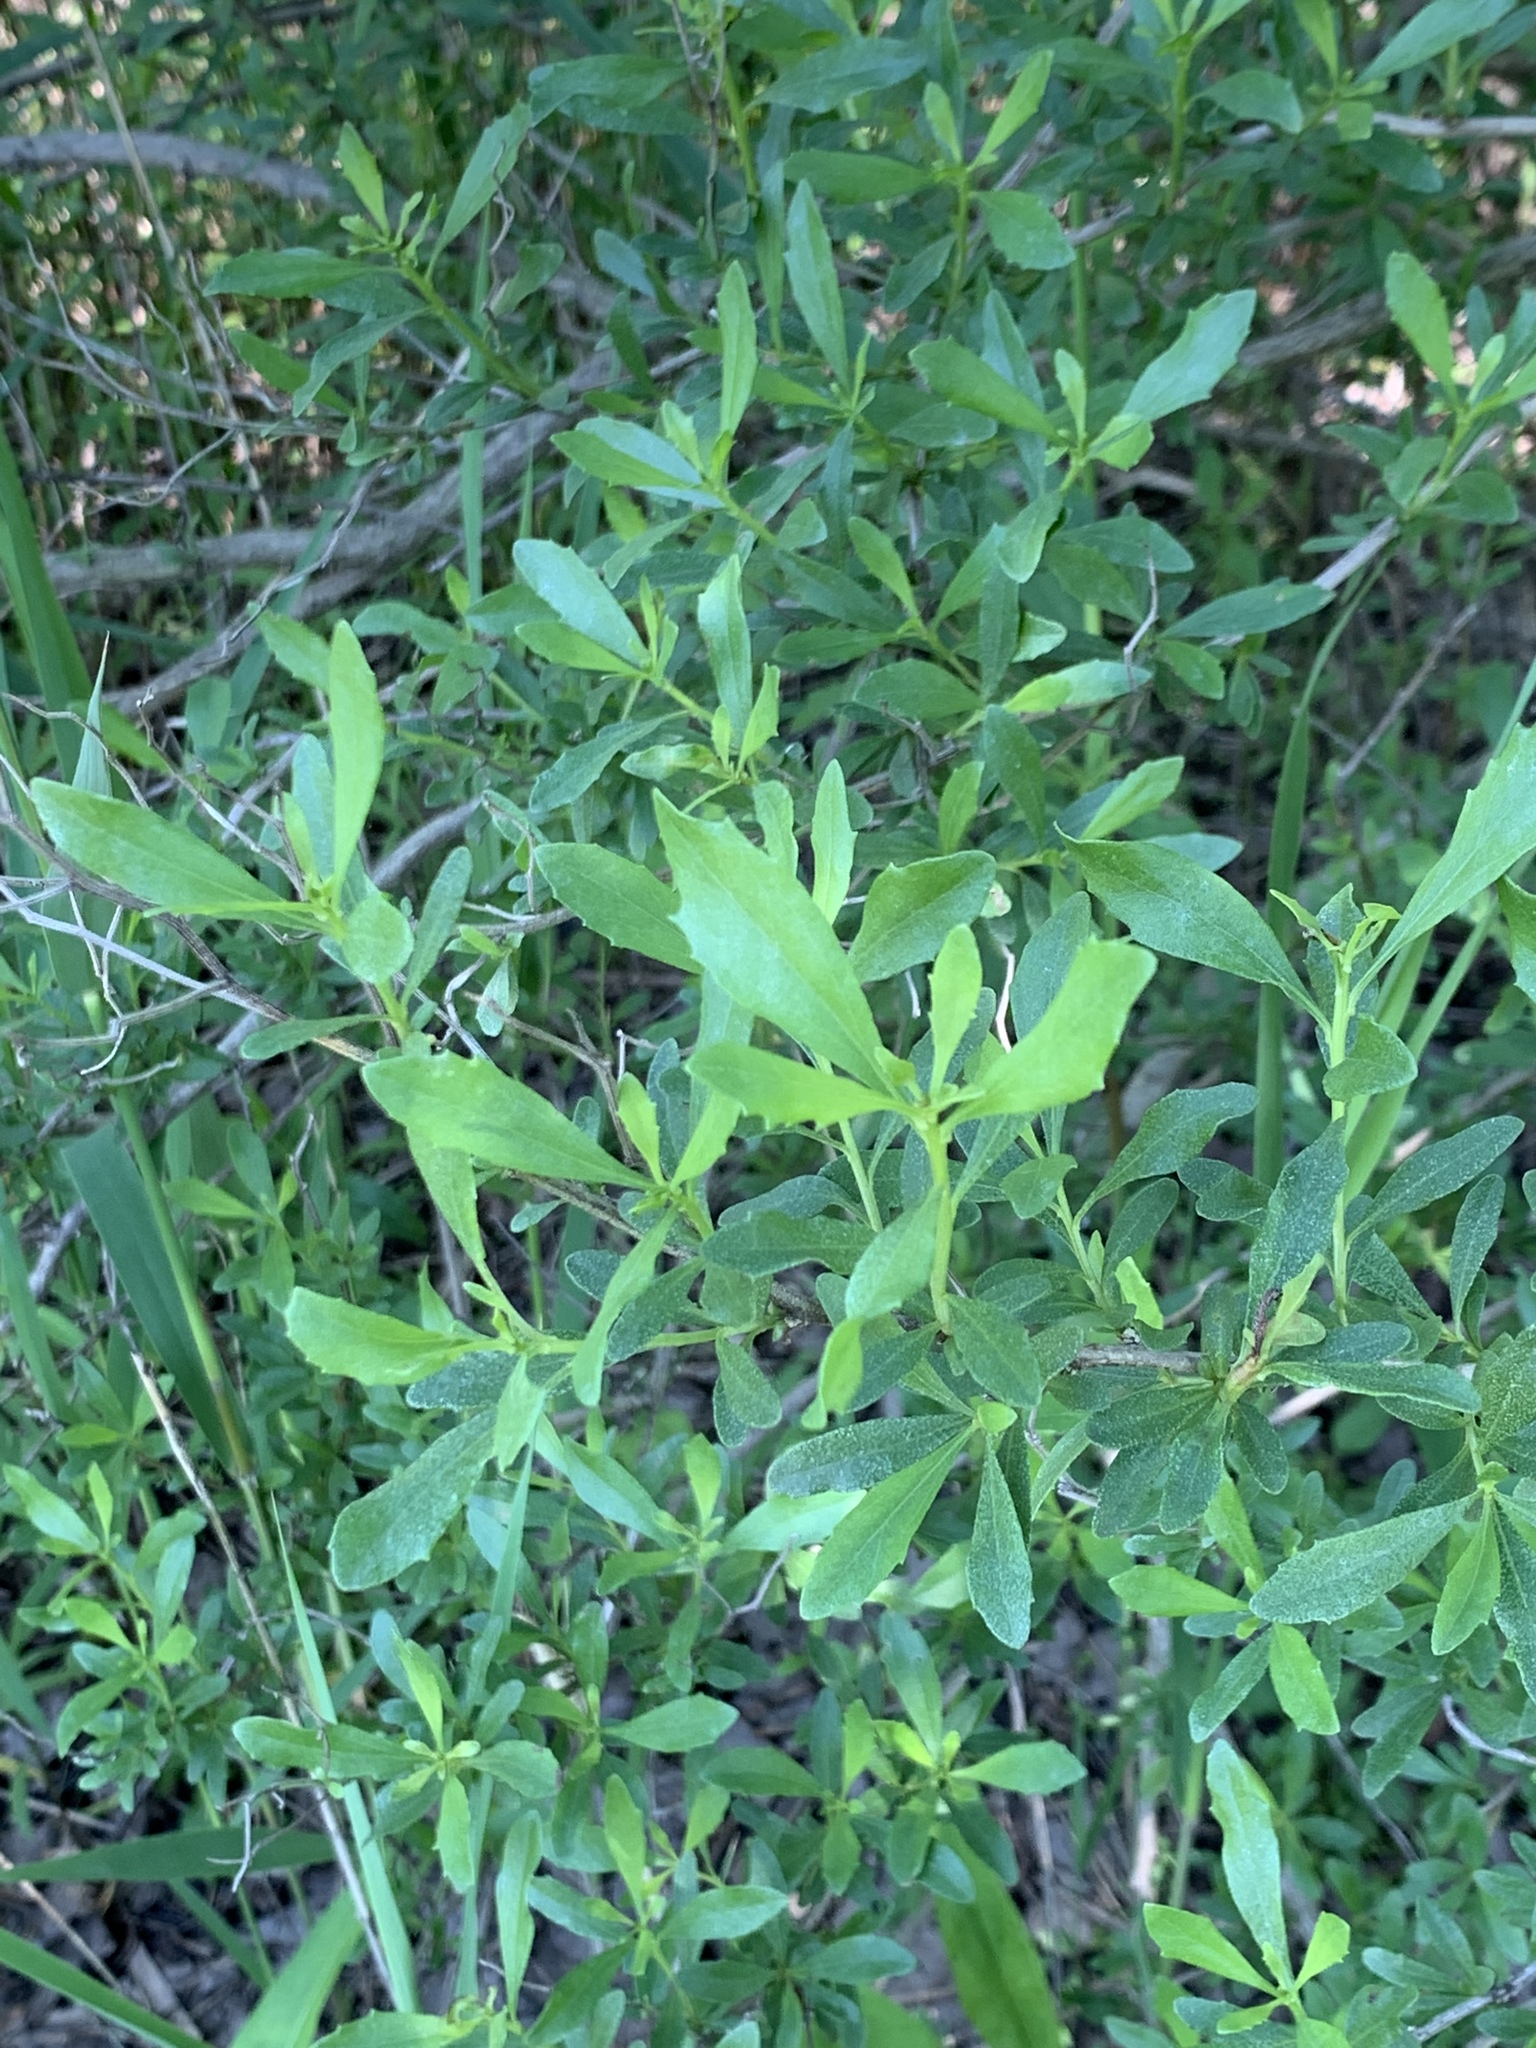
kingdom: Plantae
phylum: Tracheophyta
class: Magnoliopsida
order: Asterales
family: Asteraceae
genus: Baccharis
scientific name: Baccharis halimifolia
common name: Eastern baccharis
